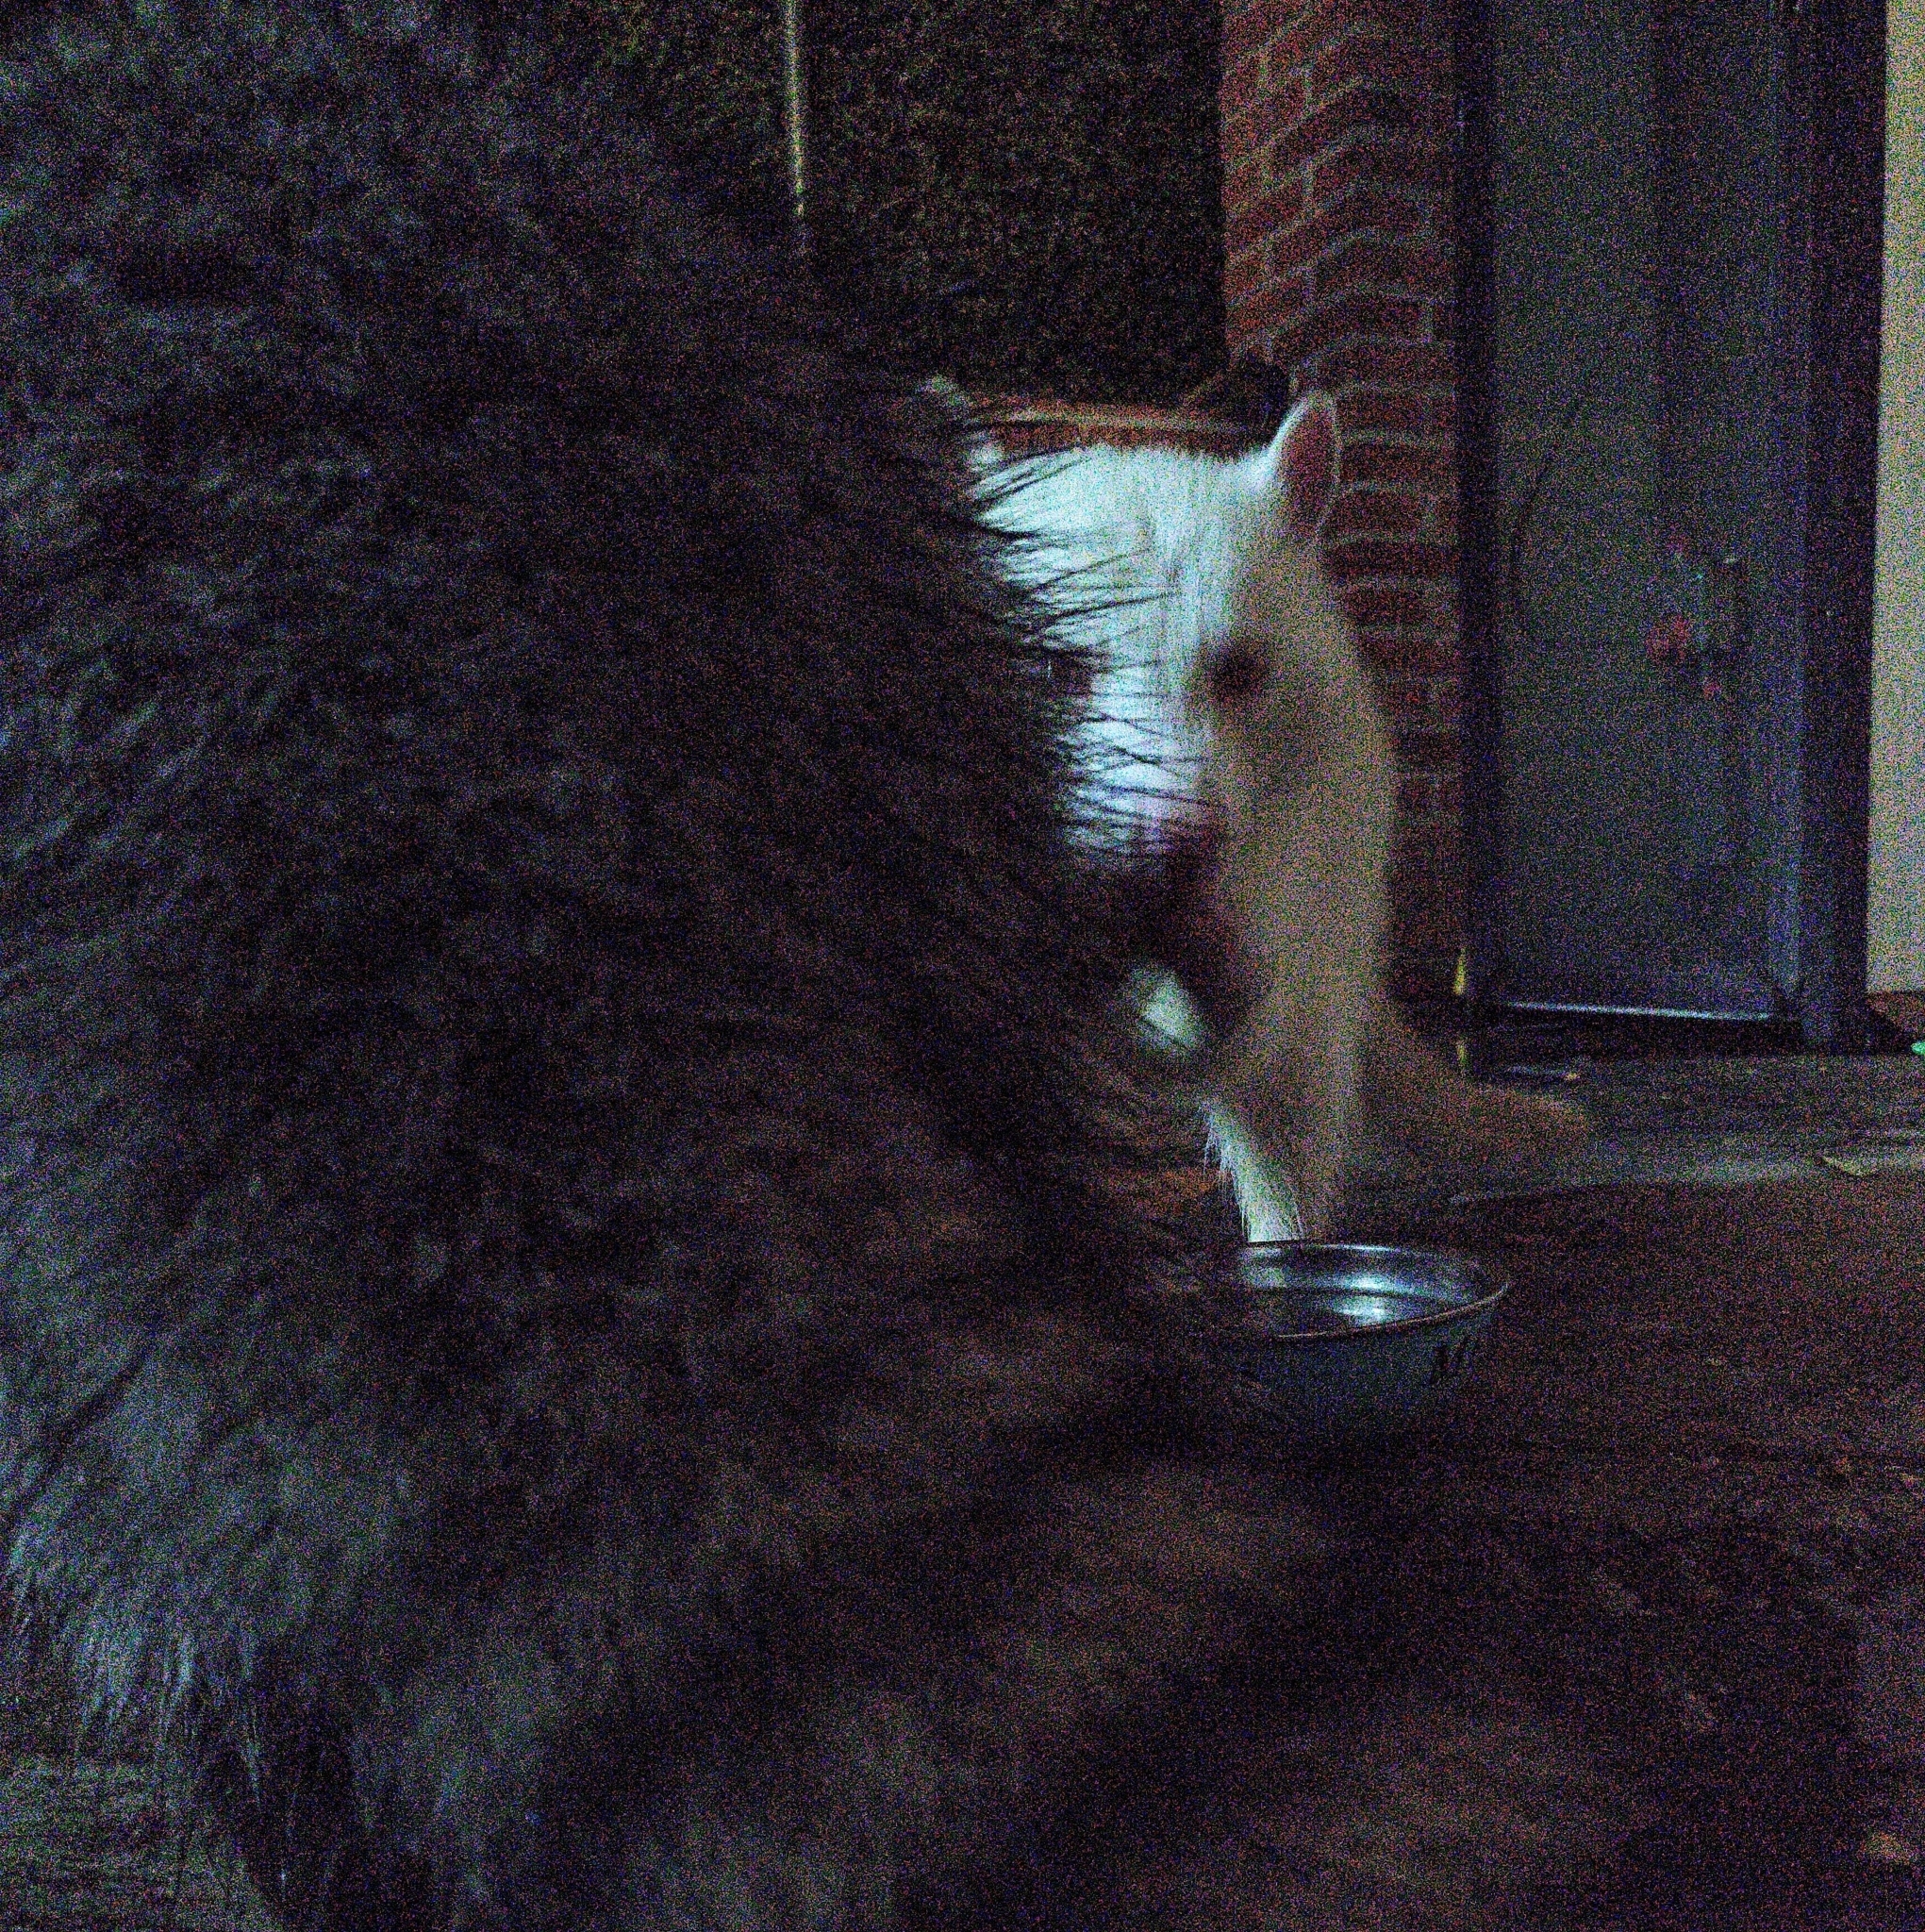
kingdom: Animalia
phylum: Chordata
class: Mammalia
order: Carnivora
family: Procyonidae
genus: Procyon
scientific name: Procyon lotor
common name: Raccoon
